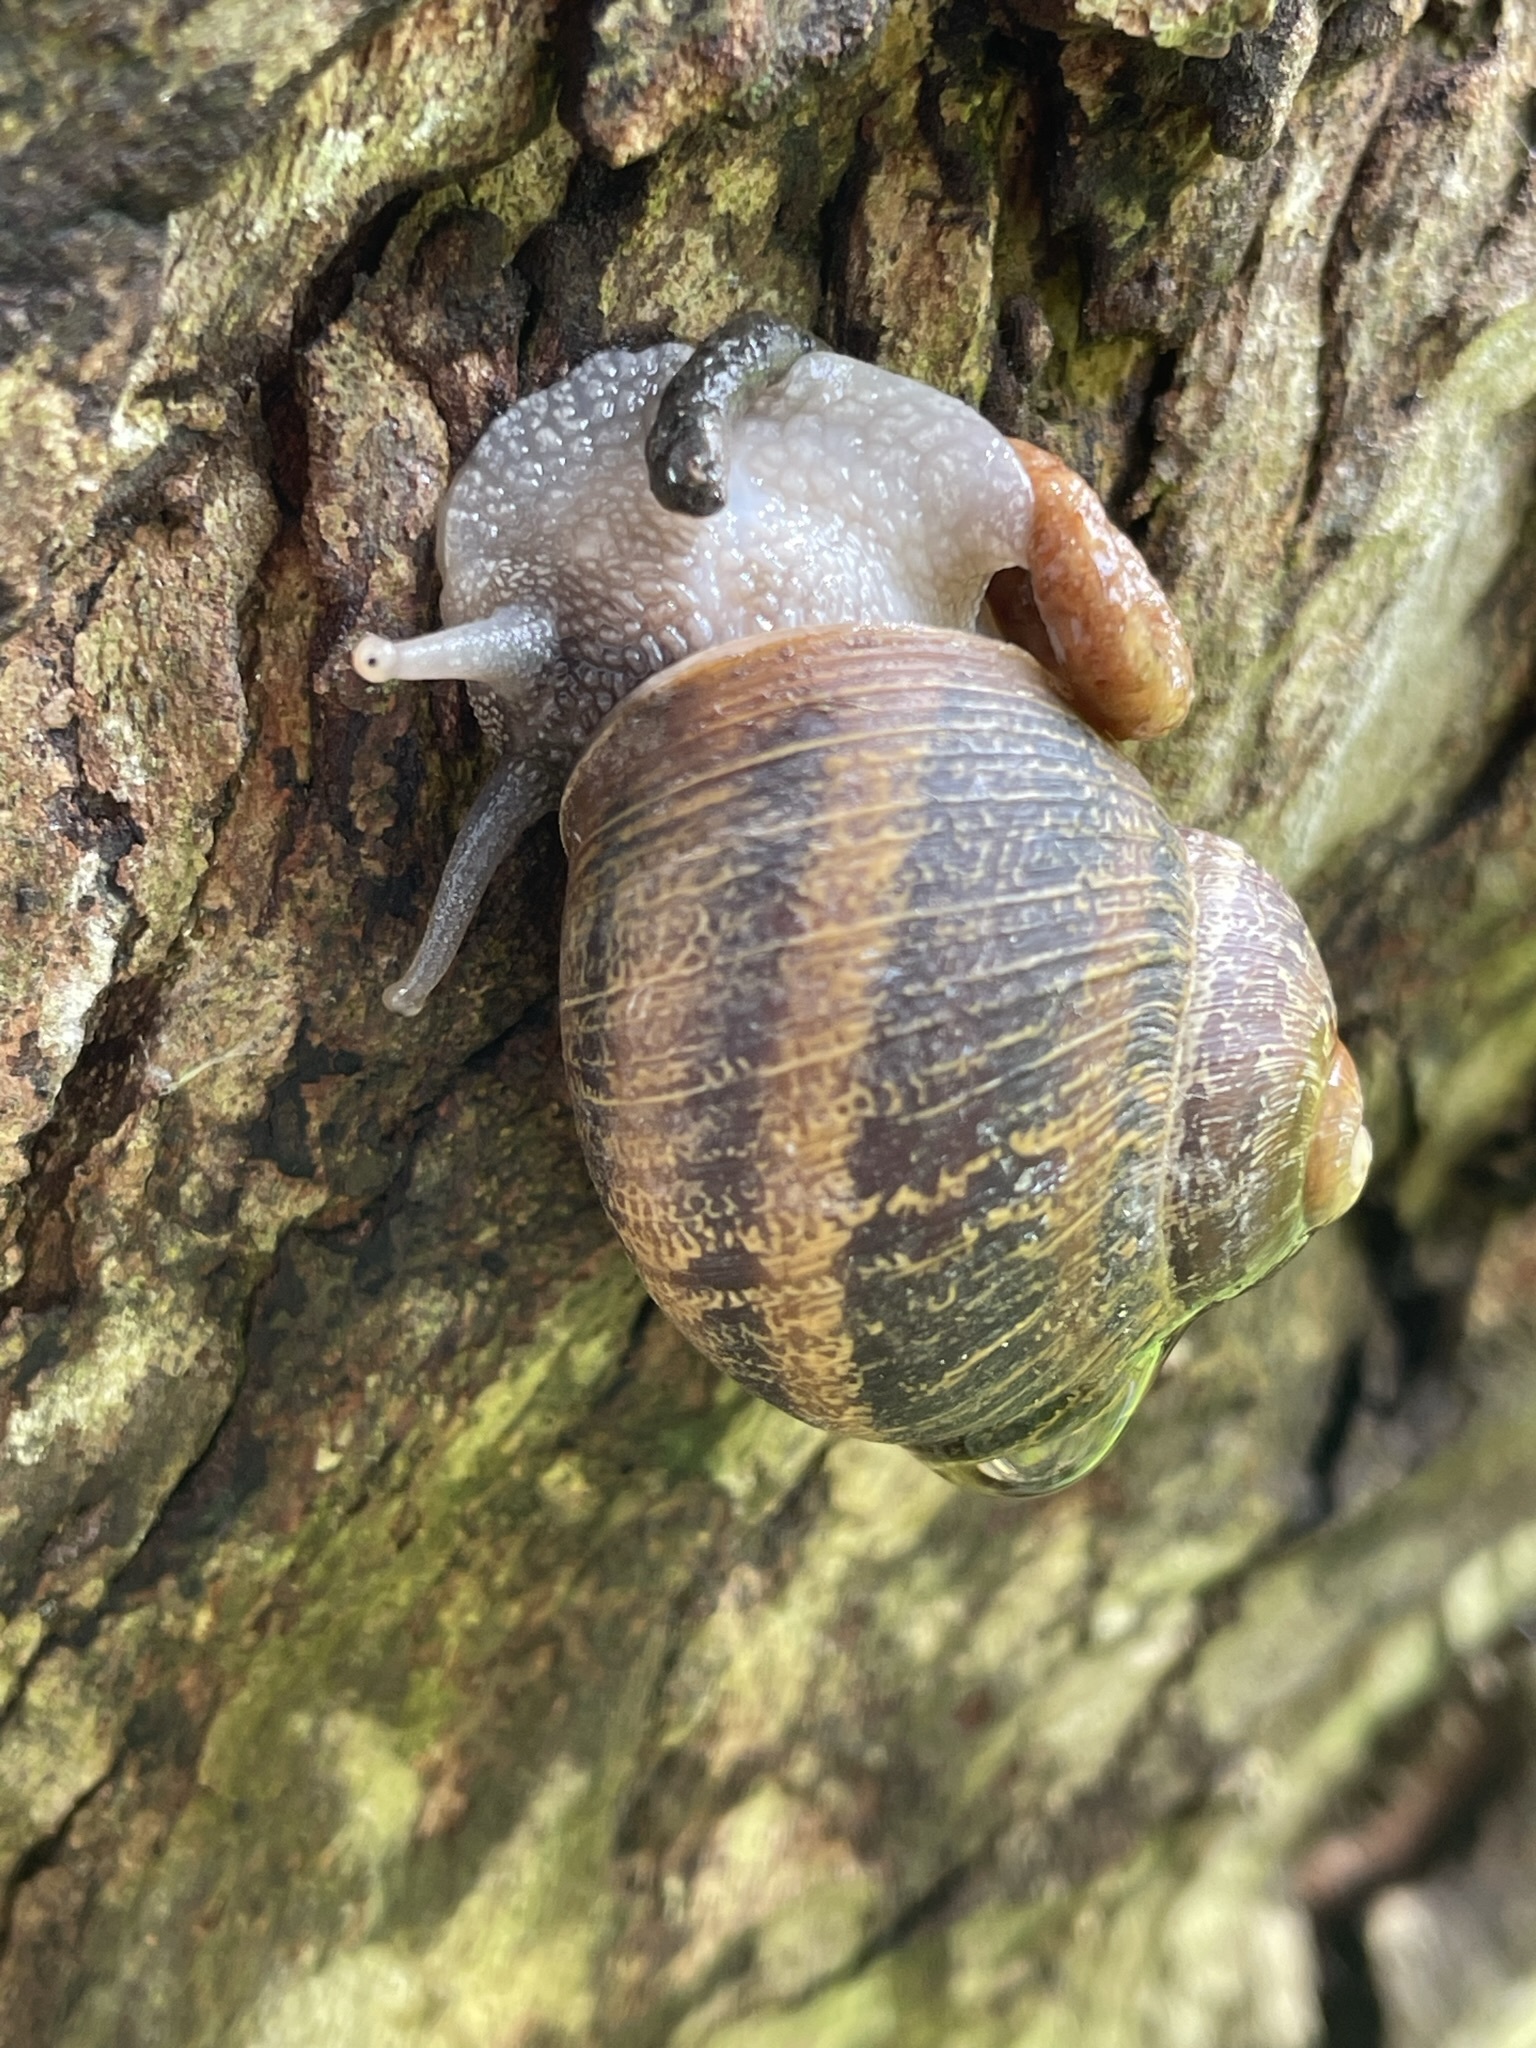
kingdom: Animalia
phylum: Mollusca
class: Gastropoda
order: Stylommatophora
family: Helicidae
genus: Cornu
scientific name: Cornu aspersum
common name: Brown garden snail
